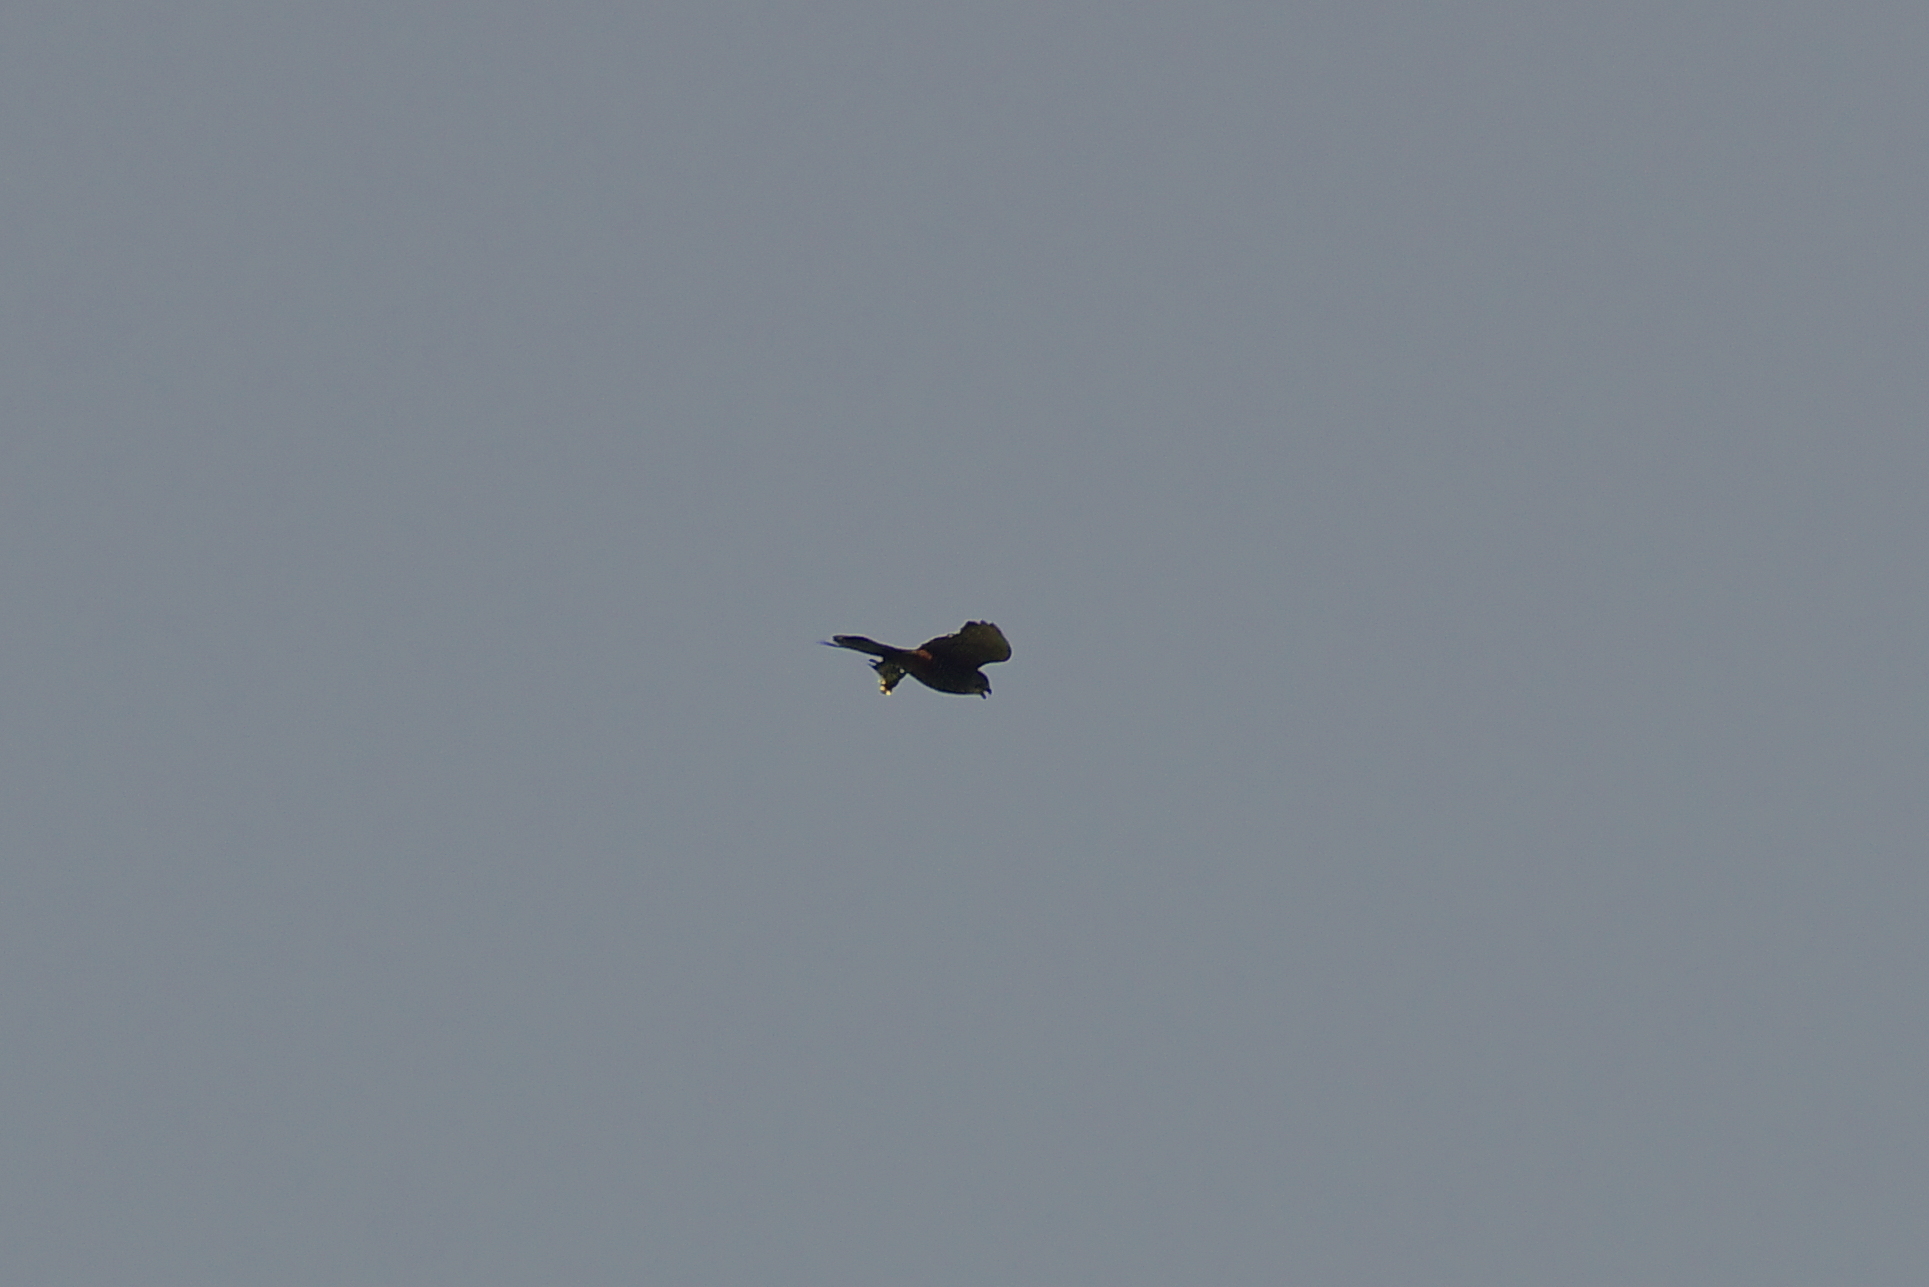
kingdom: Animalia
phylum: Chordata
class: Aves
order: Falconiformes
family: Falconidae
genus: Falco
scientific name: Falco novaeseelandiae
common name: New zealand falcon
